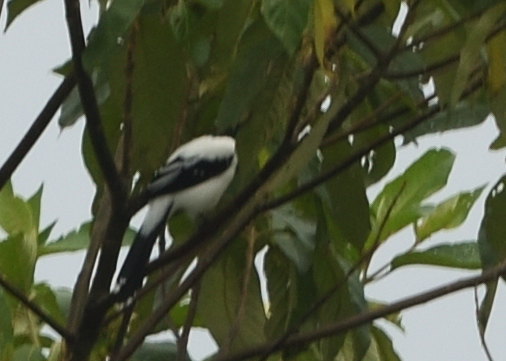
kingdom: Animalia
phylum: Chordata
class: Aves
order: Passeriformes
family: Thraupidae
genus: Cissopis
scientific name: Cissopis leverianus
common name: Magpie tanager
